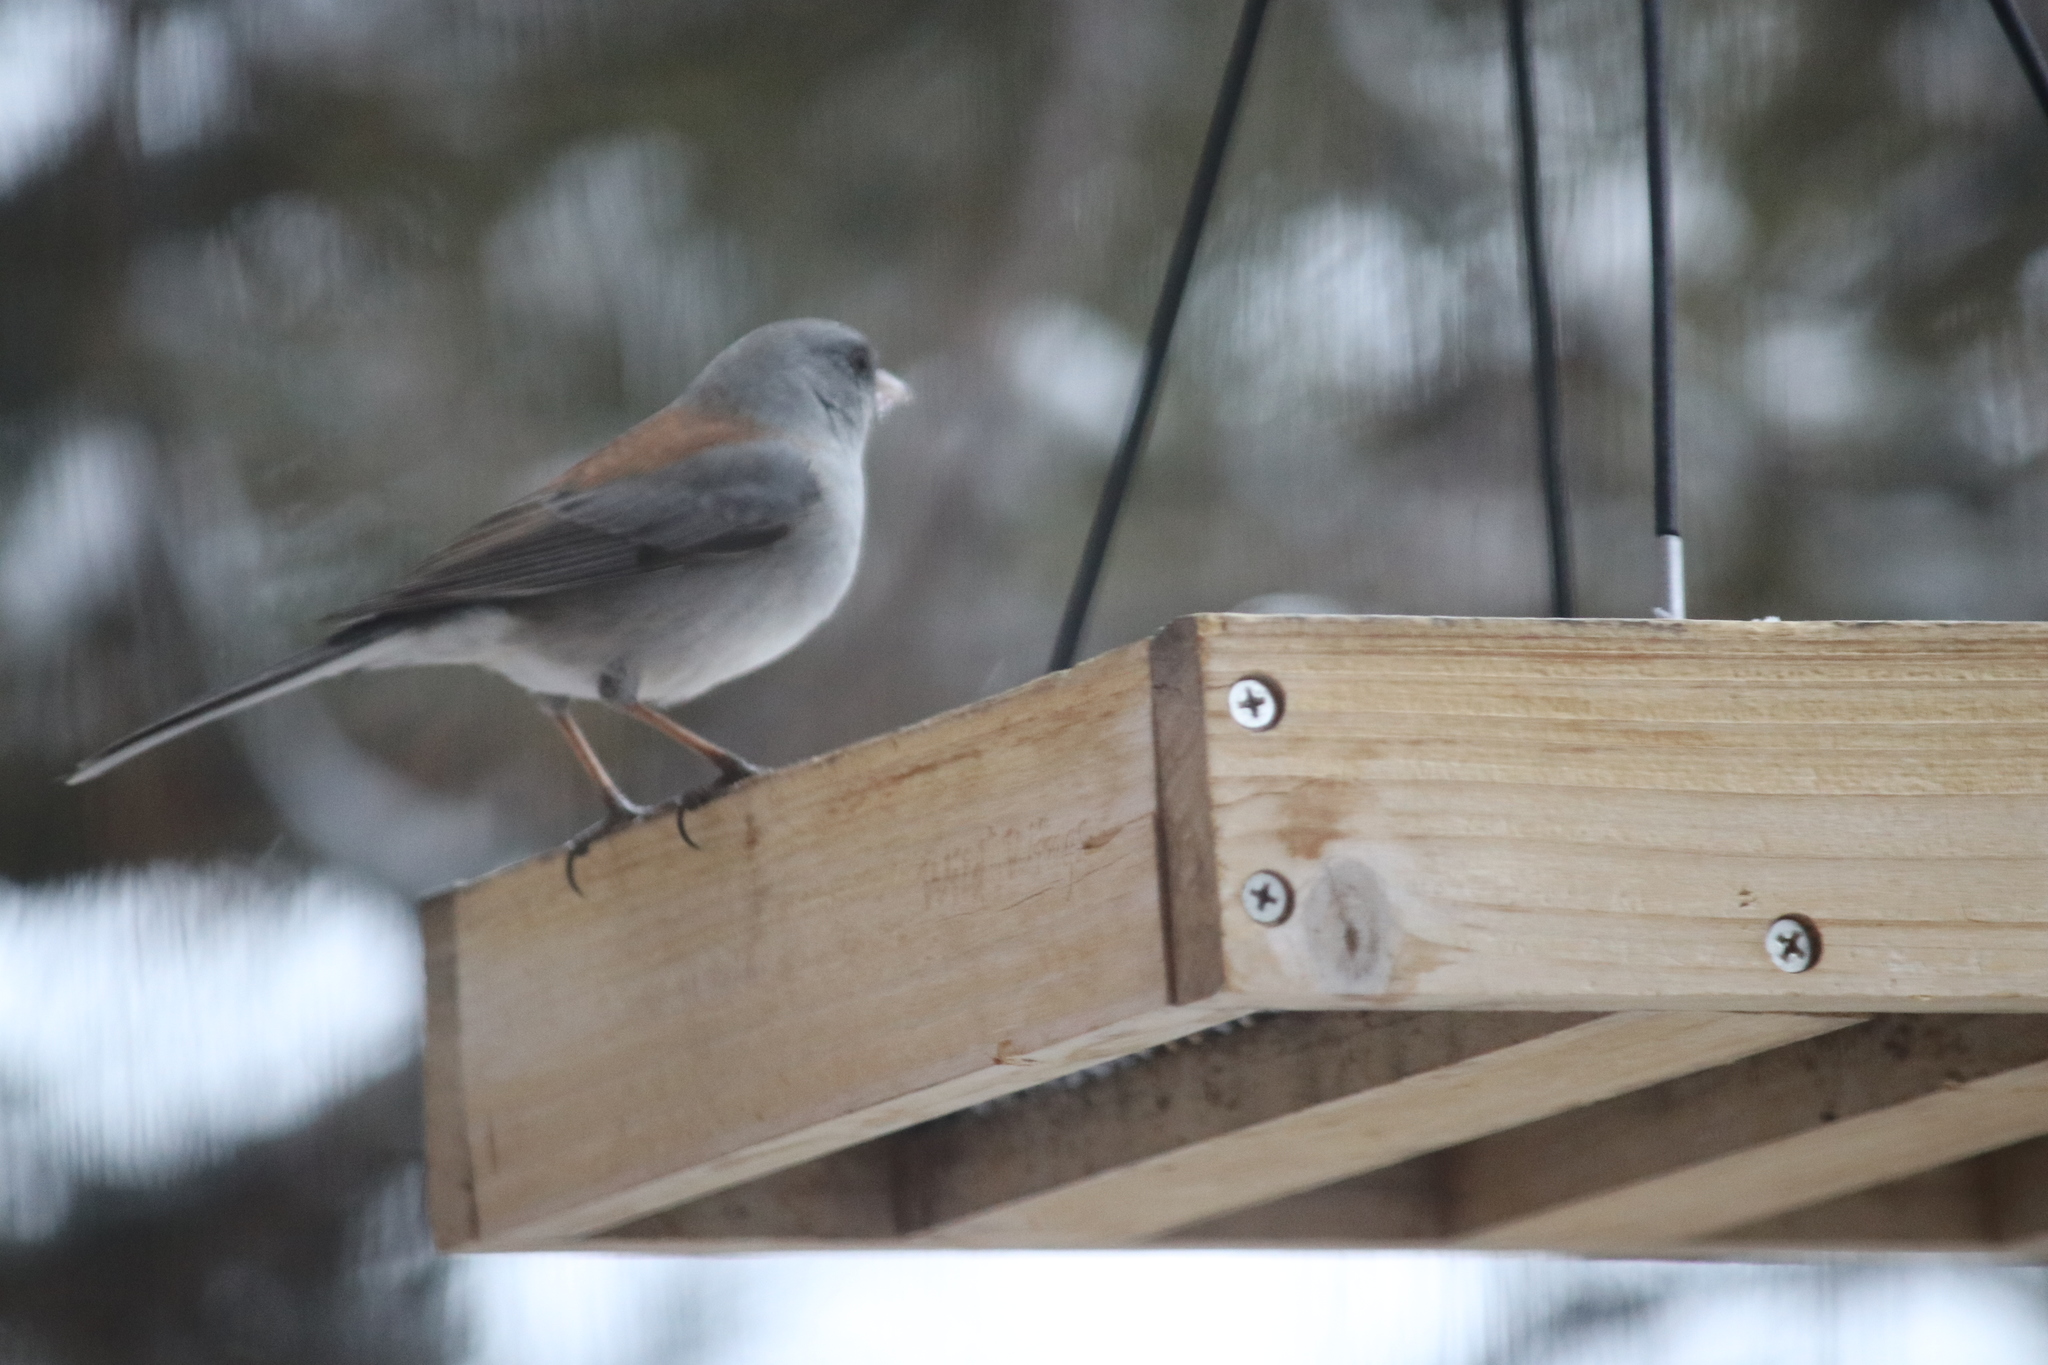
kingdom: Animalia
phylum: Chordata
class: Aves
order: Passeriformes
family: Passerellidae
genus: Junco
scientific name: Junco hyemalis
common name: Dark-eyed junco
